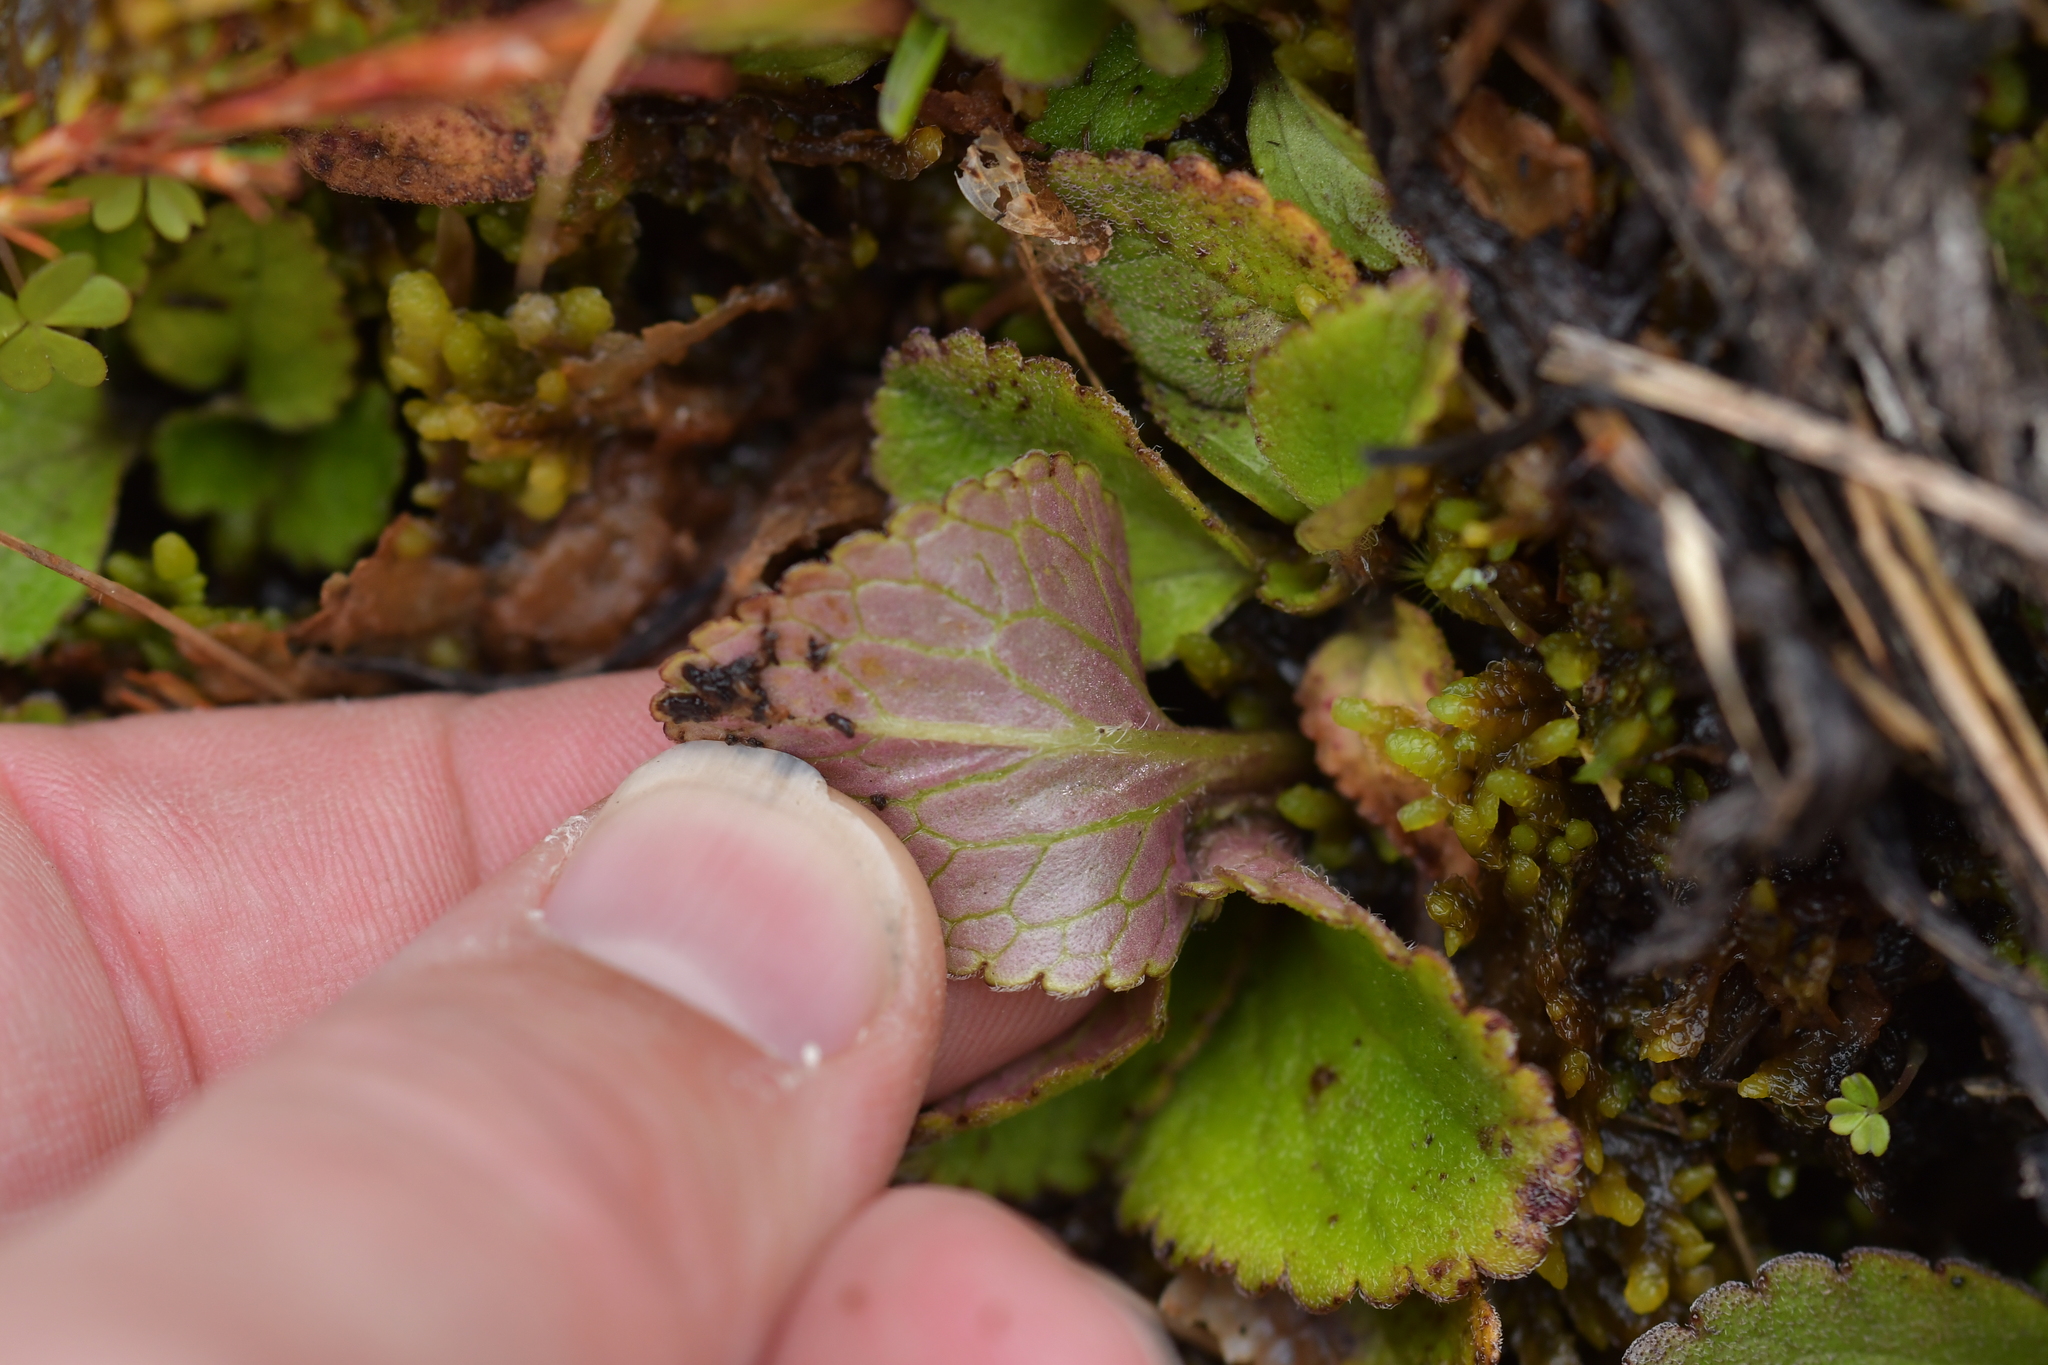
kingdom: Plantae
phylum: Tracheophyta
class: Magnoliopsida
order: Lamiales
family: Plantaginaceae
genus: Ourisia
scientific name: Ourisia macrophylla
